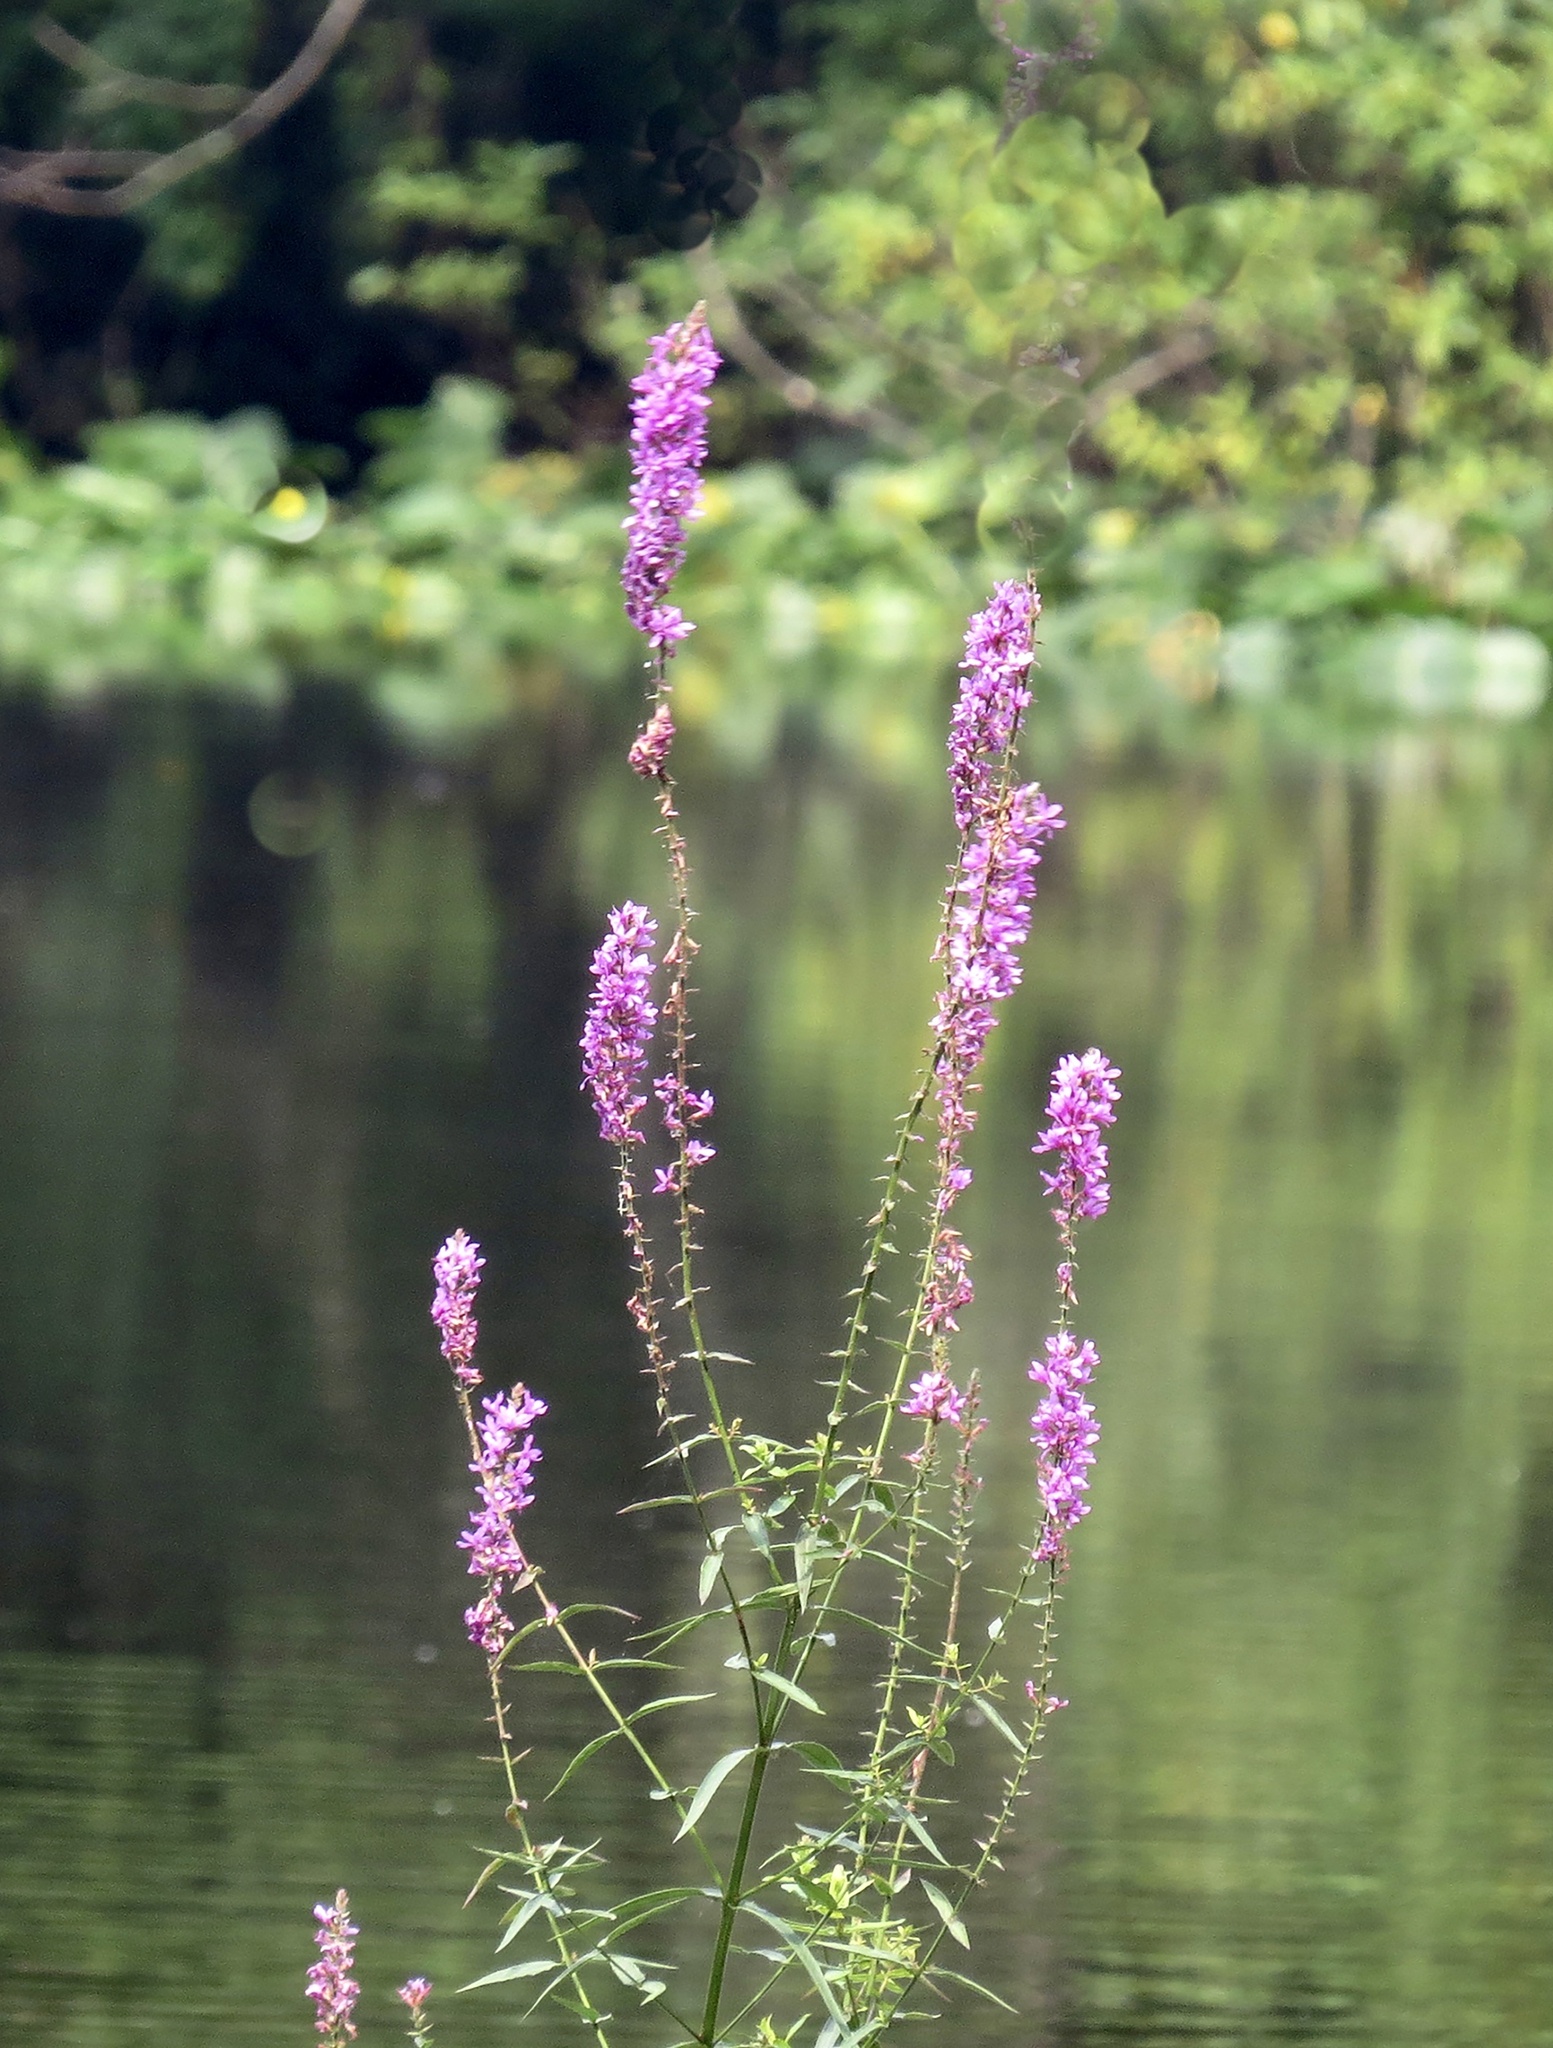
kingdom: Plantae
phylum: Tracheophyta
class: Magnoliopsida
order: Myrtales
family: Lythraceae
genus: Lythrum
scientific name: Lythrum salicaria
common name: Purple loosestrife
